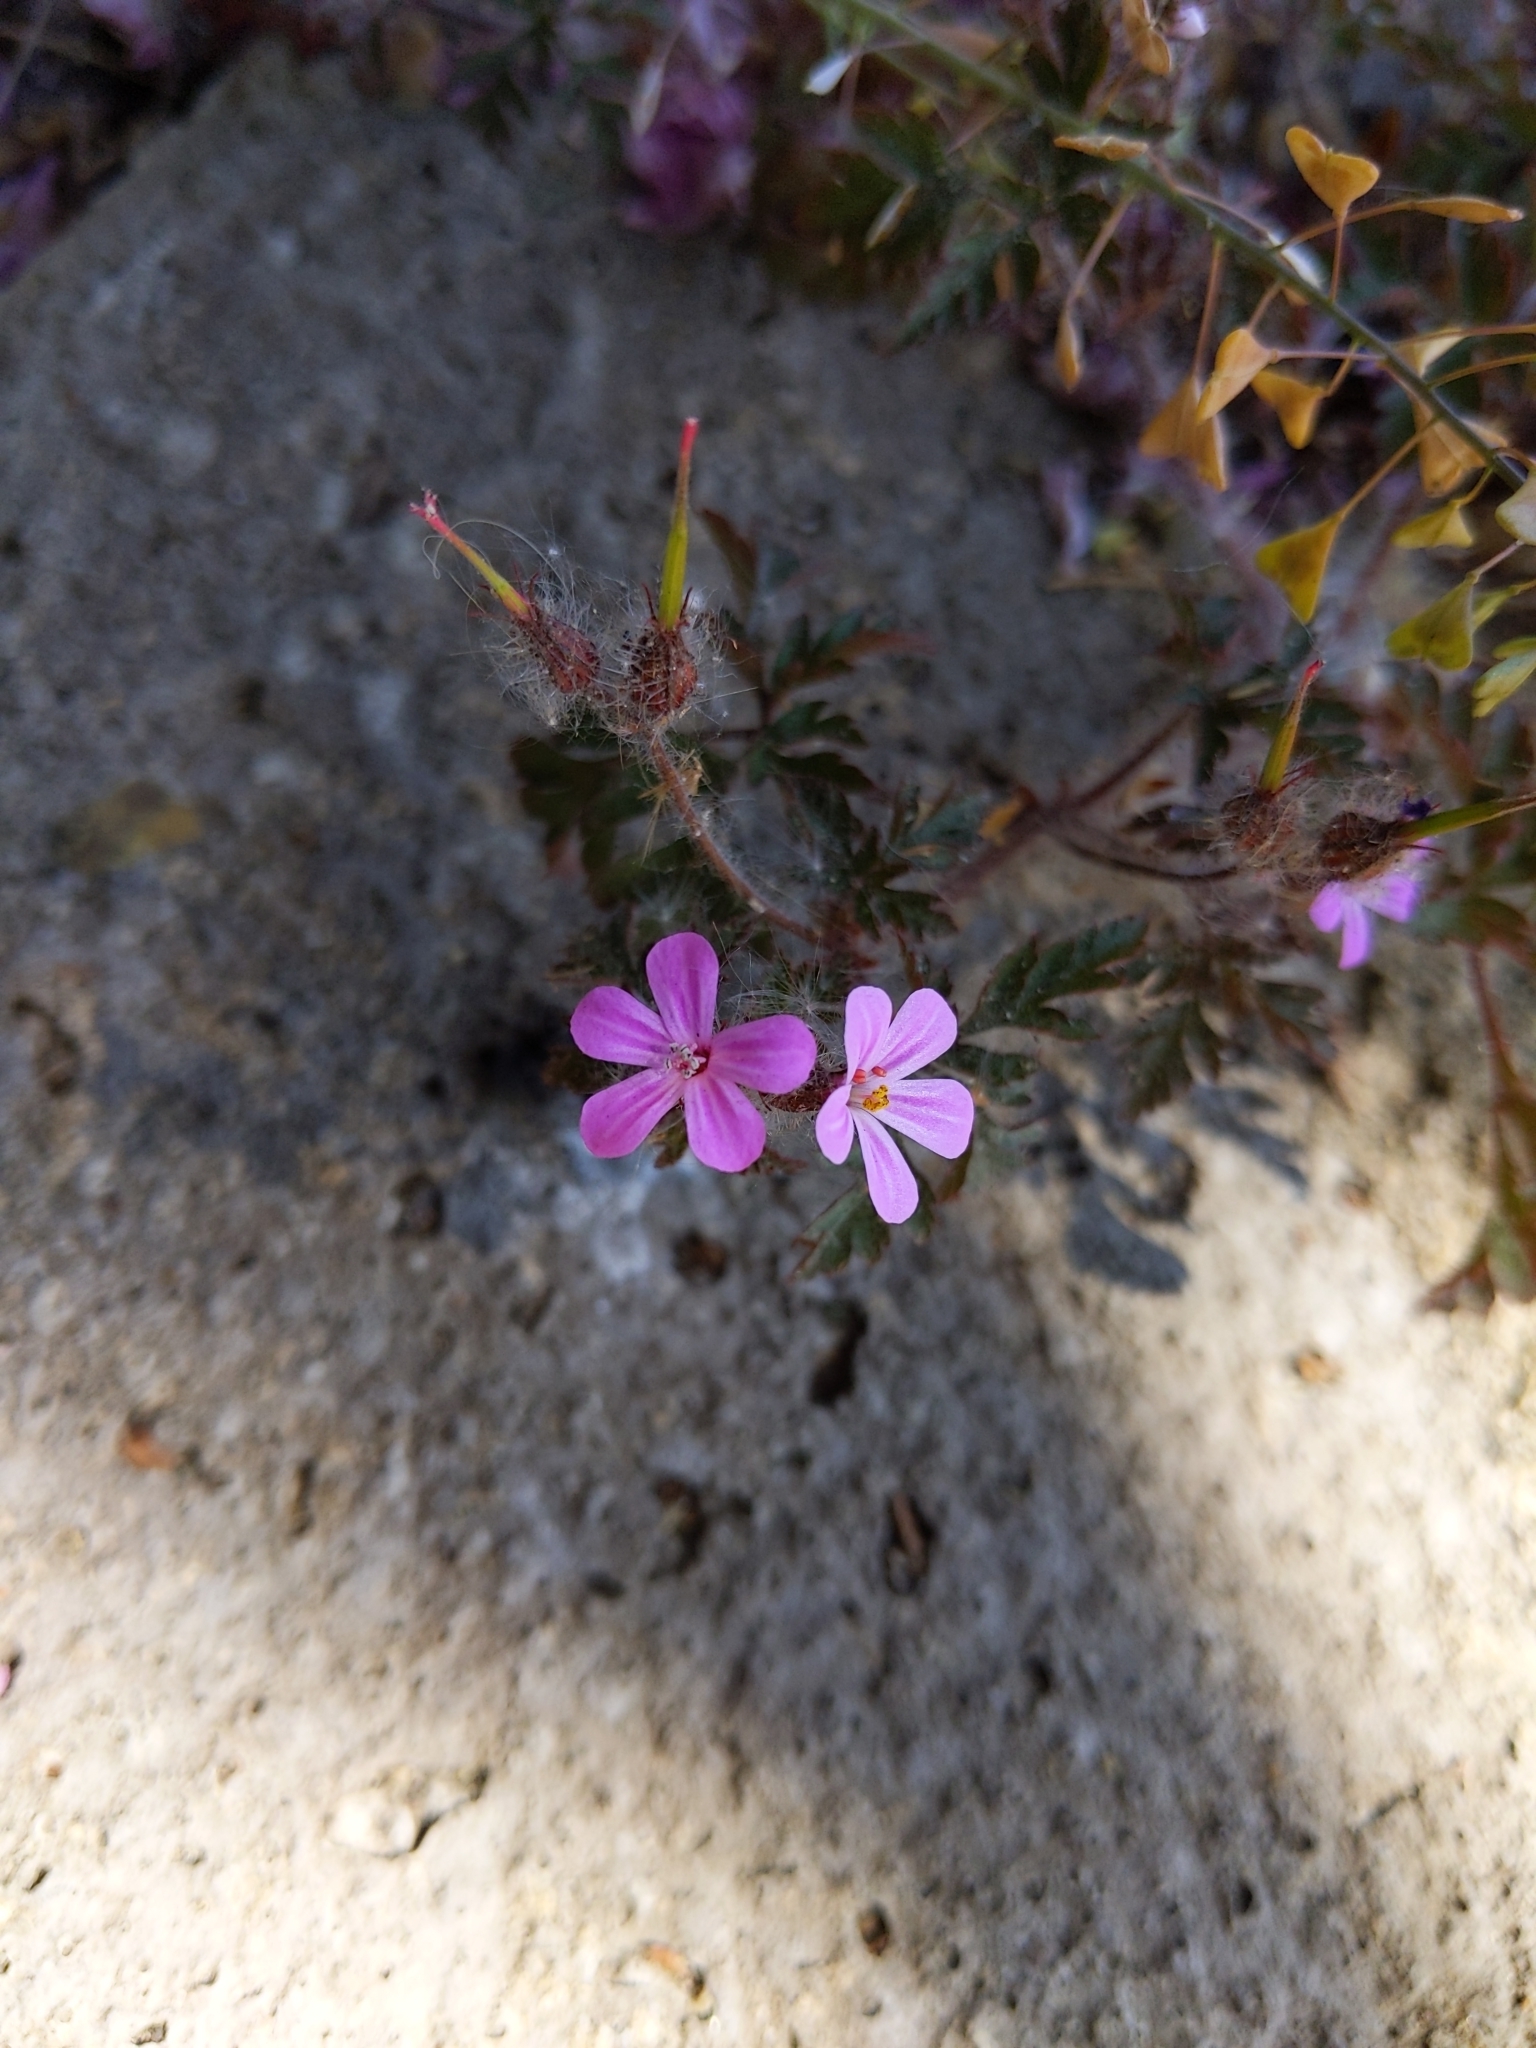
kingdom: Plantae
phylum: Tracheophyta
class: Magnoliopsida
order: Geraniales
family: Geraniaceae
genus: Geranium
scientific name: Geranium robertianum
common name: Herb-robert
